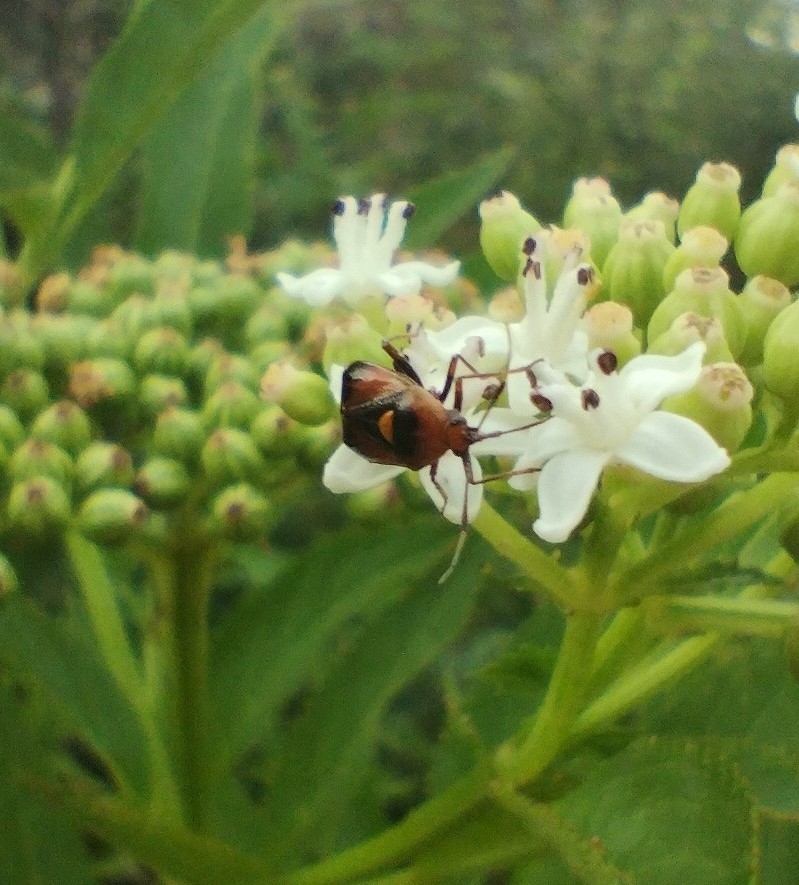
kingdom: Animalia
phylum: Arthropoda
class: Insecta
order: Hemiptera
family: Miridae
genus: Deraeocoris
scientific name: Deraeocoris ruber
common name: Plant bug
